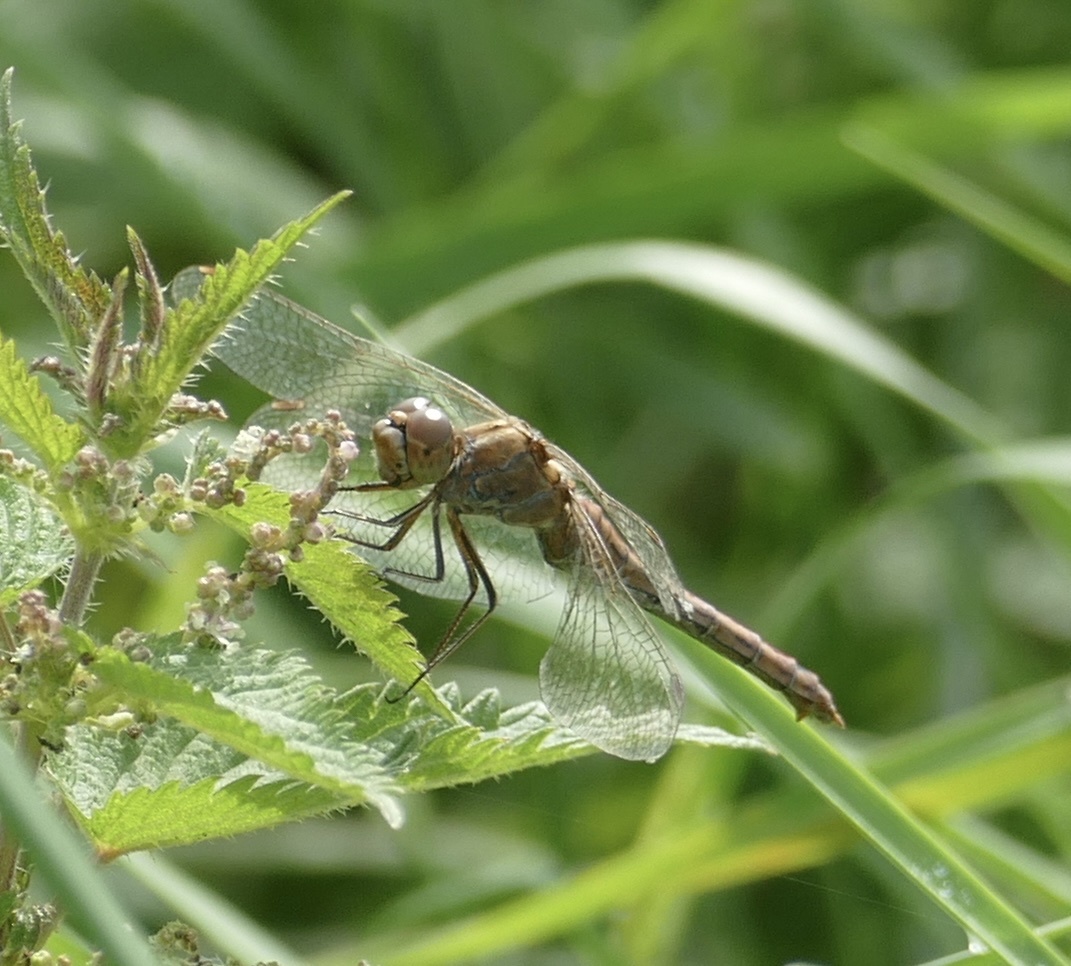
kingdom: Animalia
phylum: Arthropoda
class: Insecta
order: Odonata
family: Libellulidae
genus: Sympetrum
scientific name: Sympetrum vulgatum
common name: Vagrant darter
